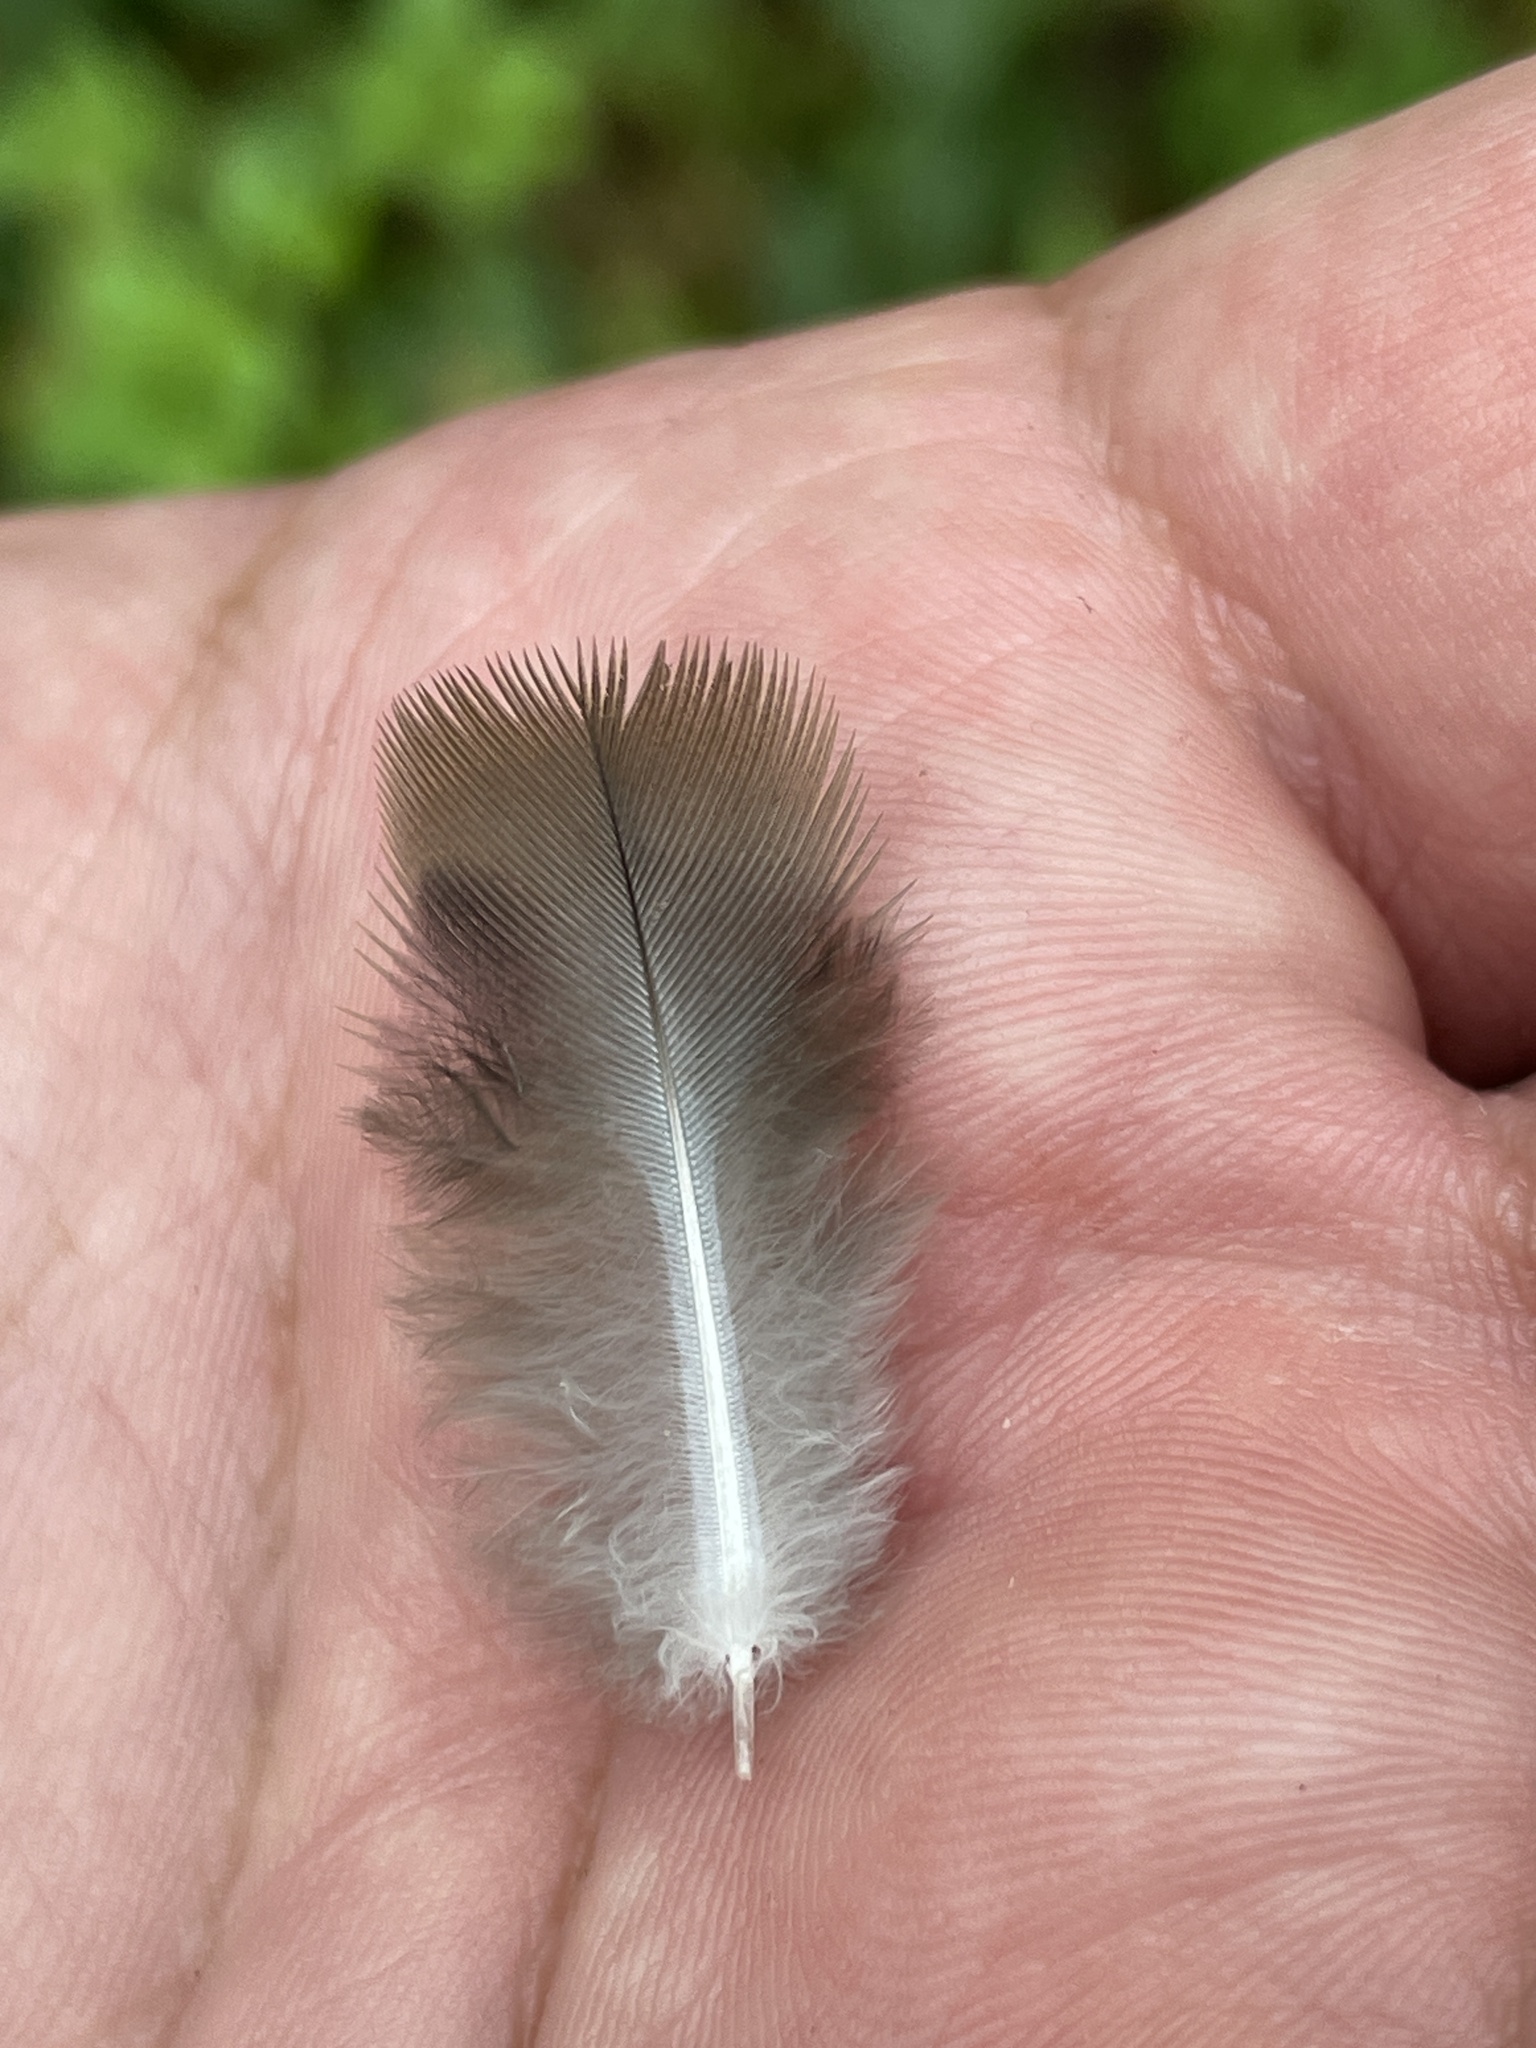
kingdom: Animalia
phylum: Chordata
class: Aves
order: Columbiformes
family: Columbidae
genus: Zenaida
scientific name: Zenaida macroura
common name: Mourning dove
